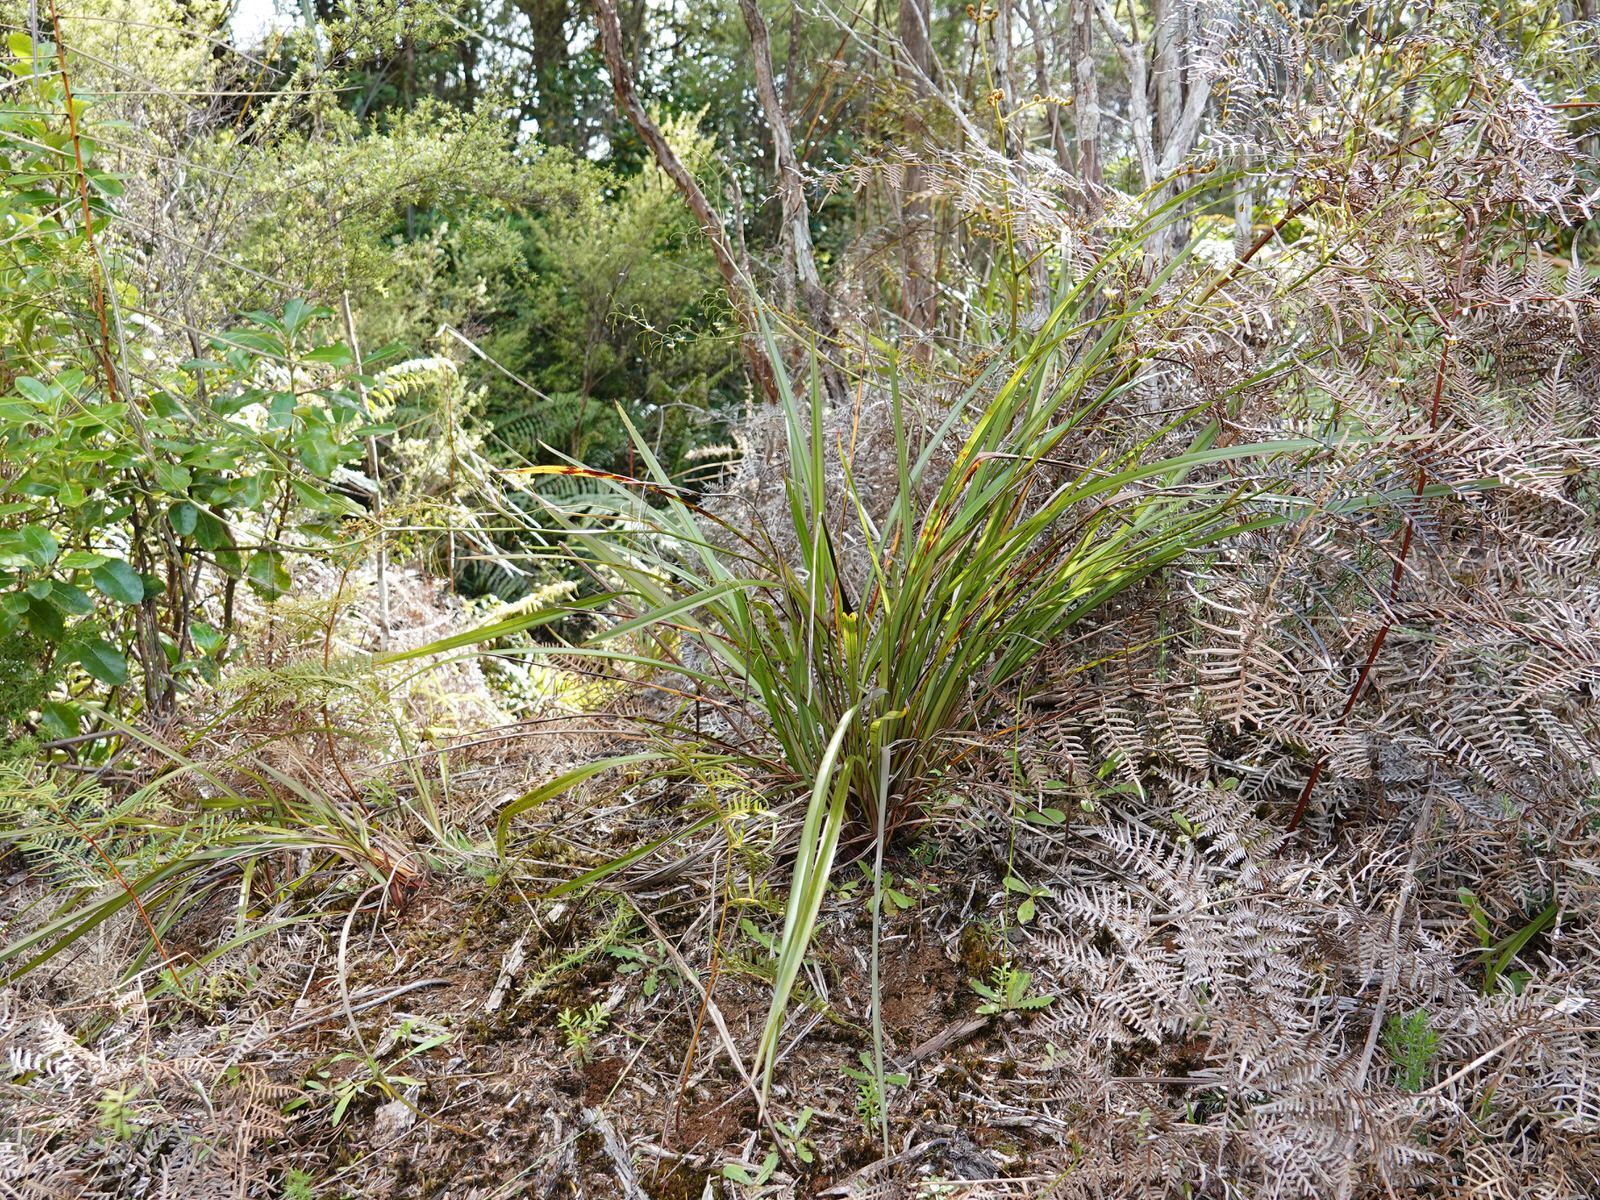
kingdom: Plantae
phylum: Tracheophyta
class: Liliopsida
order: Asparagales
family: Asphodelaceae
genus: Dianella
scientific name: Dianella nigra
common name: New zealand-blueberry
